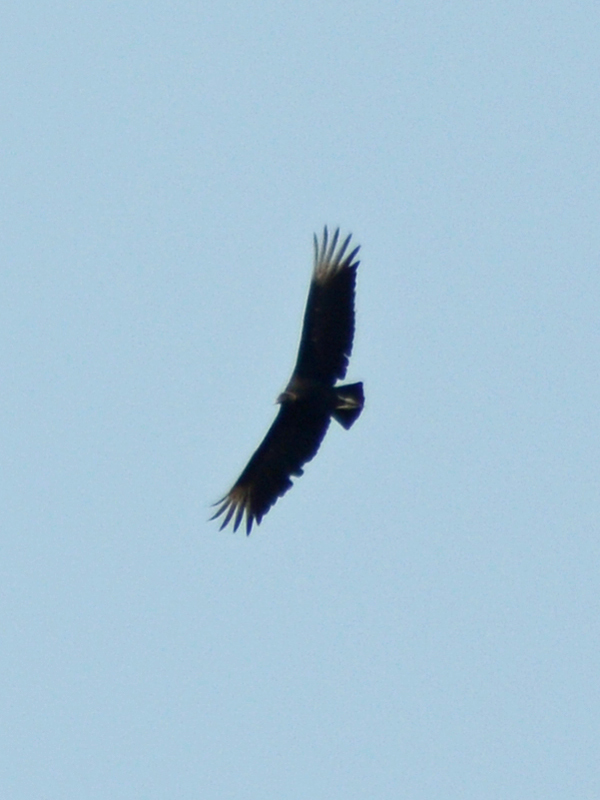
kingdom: Animalia
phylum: Chordata
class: Aves
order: Accipitriformes
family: Cathartidae
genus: Coragyps
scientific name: Coragyps atratus
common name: Black vulture
